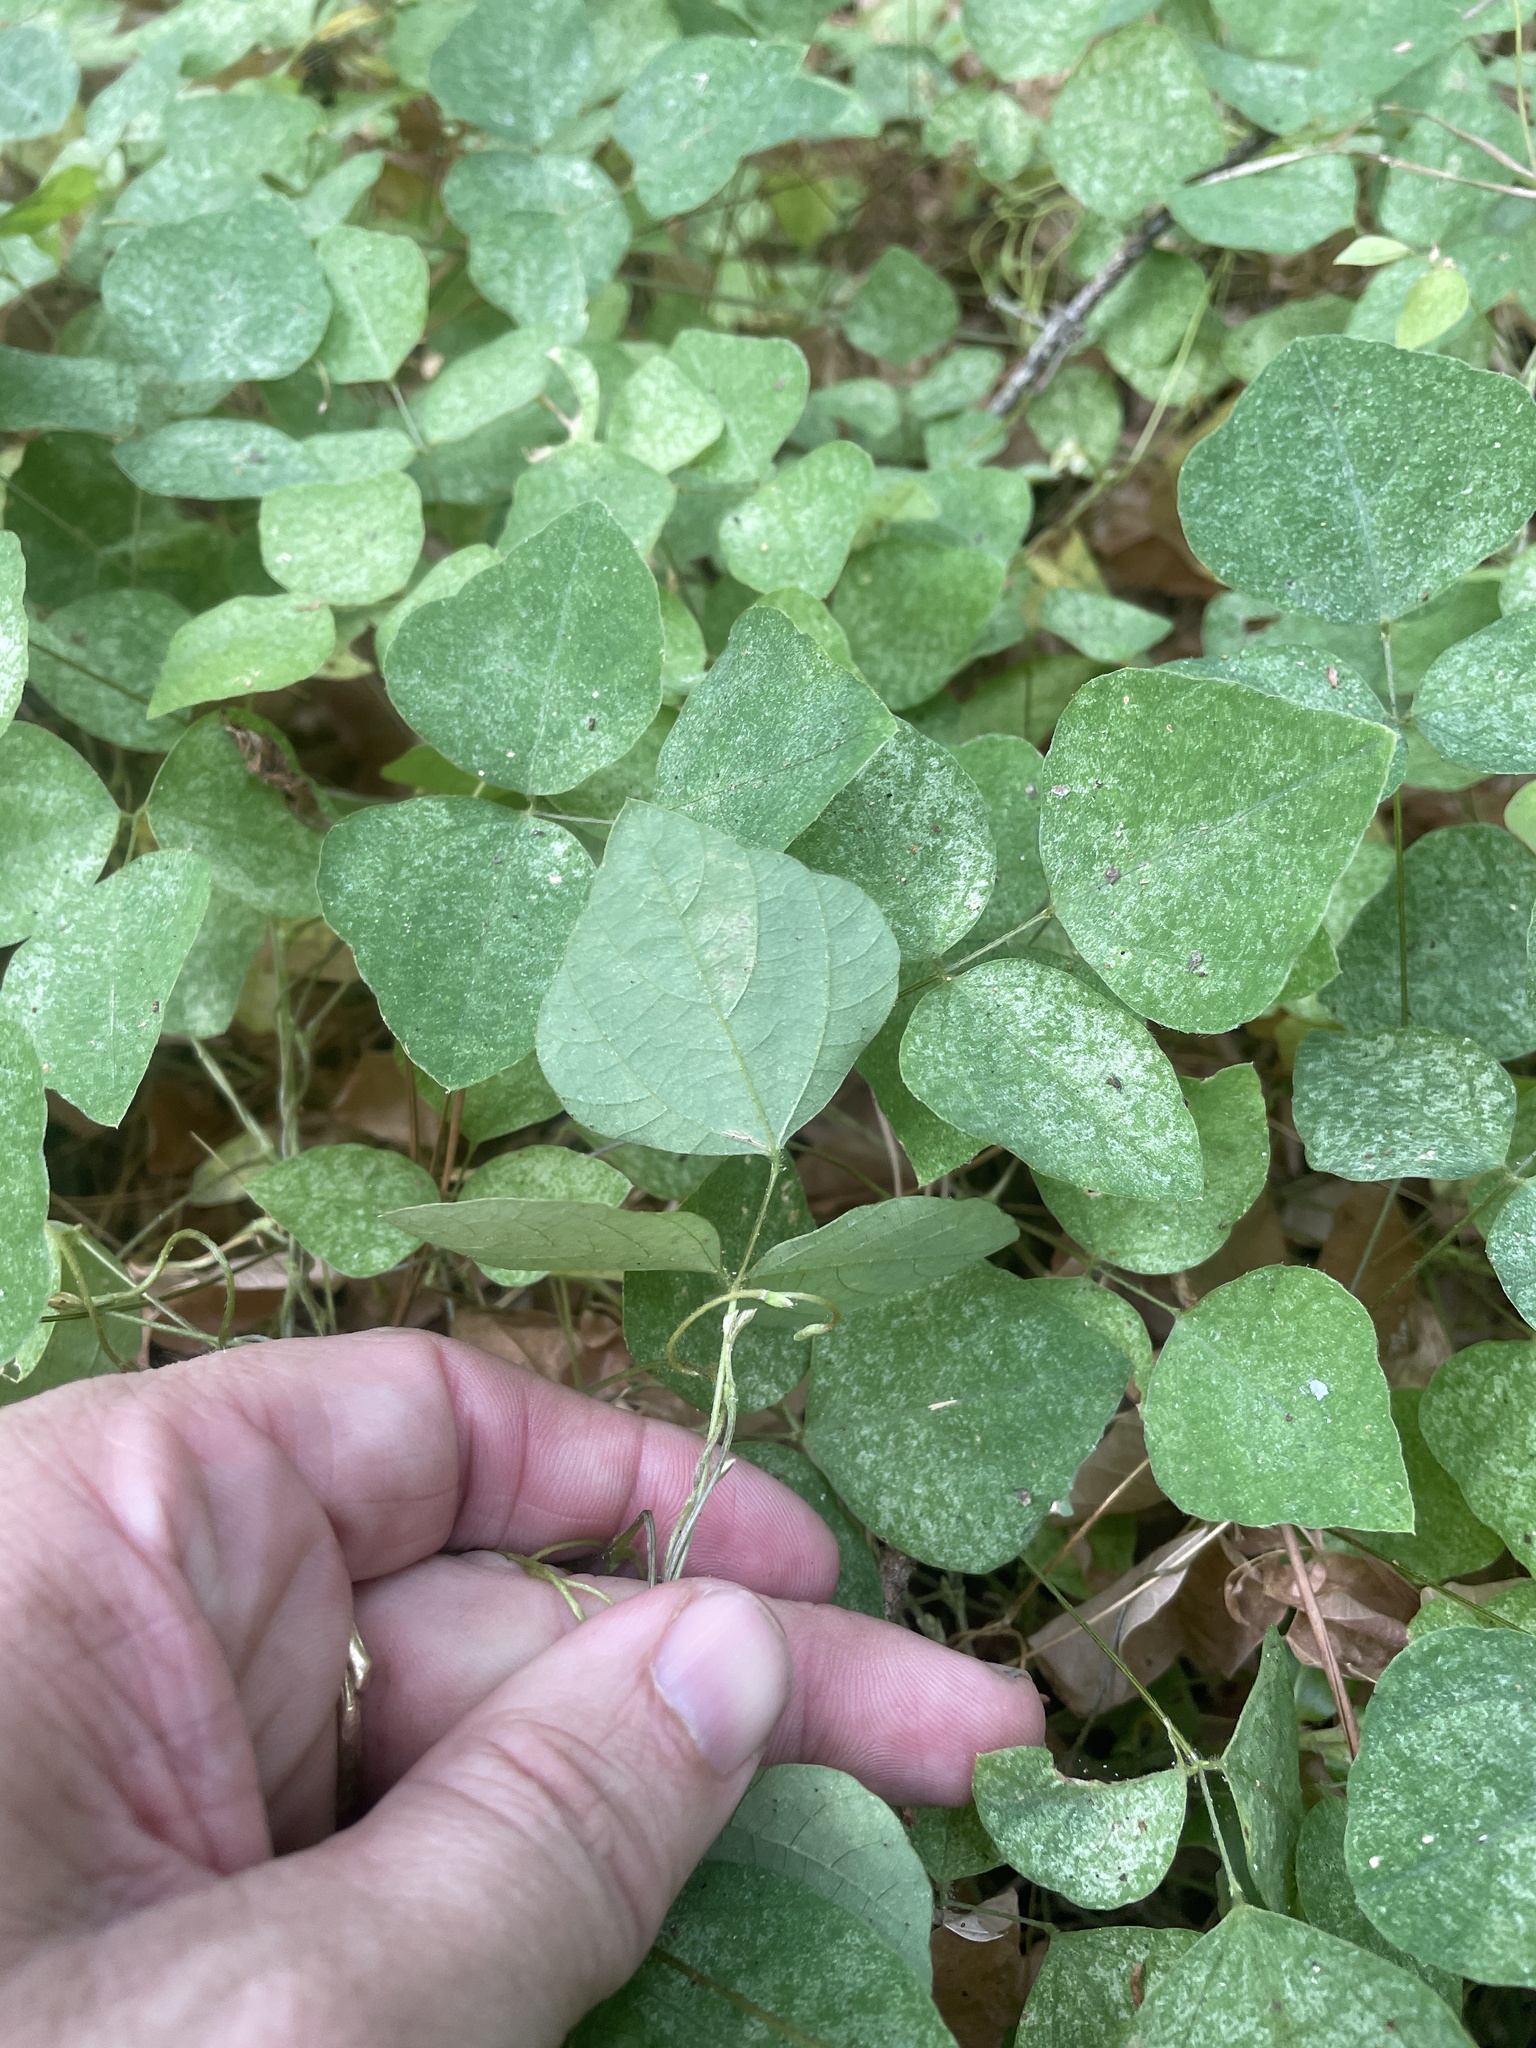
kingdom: Plantae
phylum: Tracheophyta
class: Magnoliopsida
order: Fabales
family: Fabaceae
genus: Amphicarpaea
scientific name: Amphicarpaea bracteata
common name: American hog peanut
